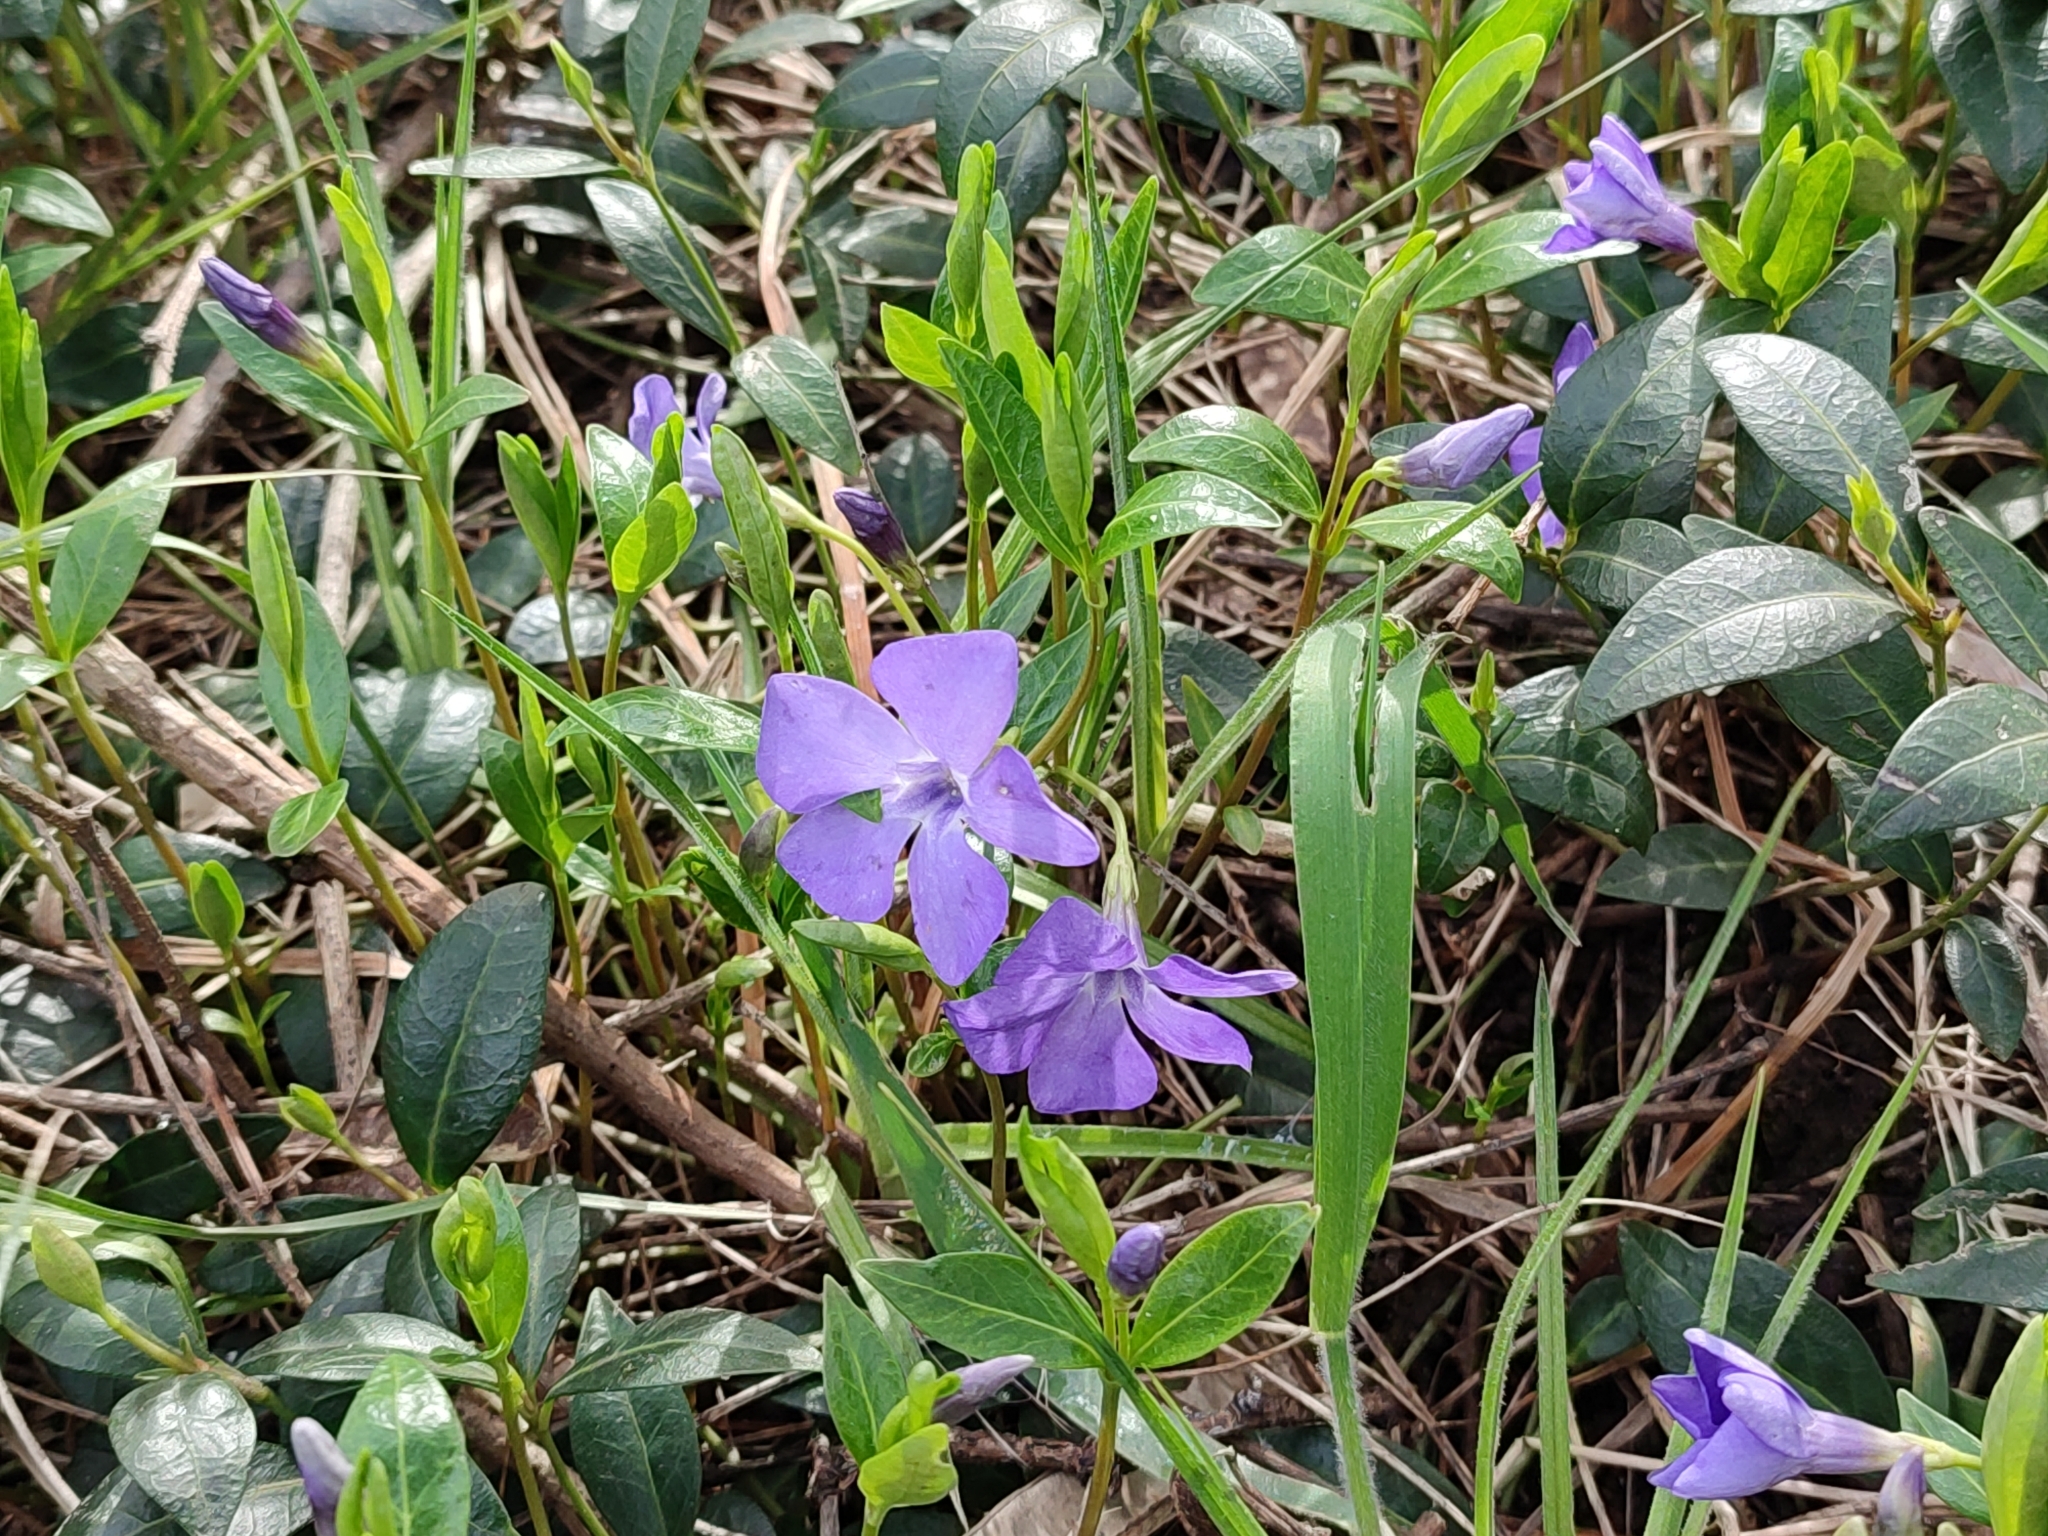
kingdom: Plantae
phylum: Tracheophyta
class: Magnoliopsida
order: Gentianales
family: Apocynaceae
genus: Vinca
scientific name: Vinca minor
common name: Lesser periwinkle
